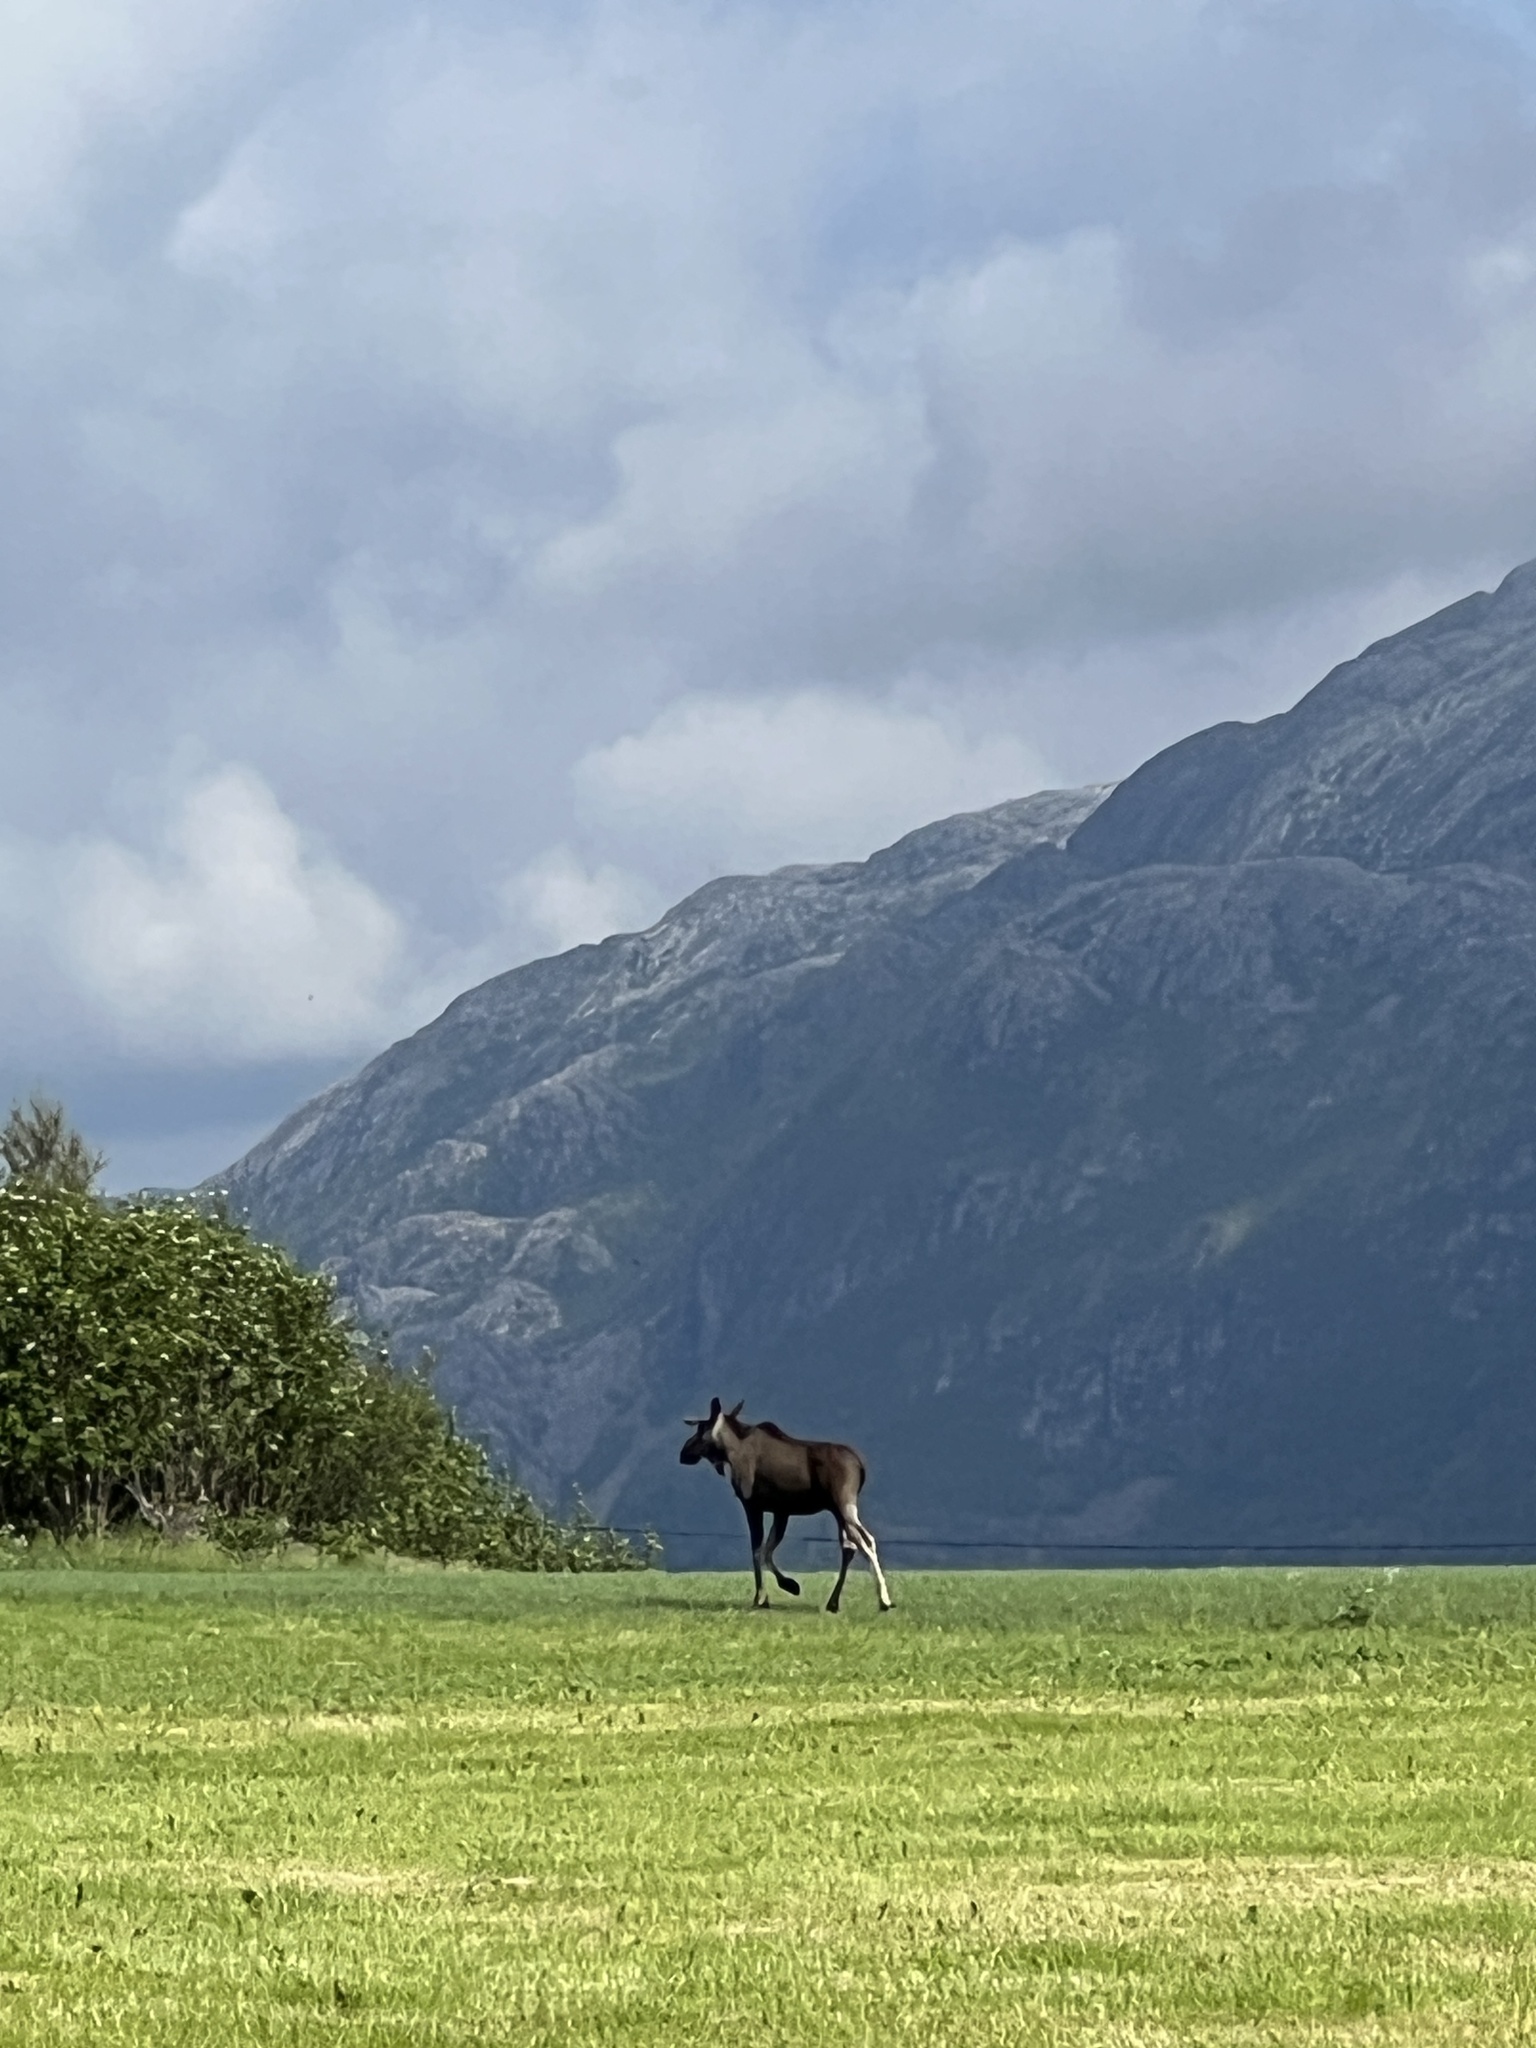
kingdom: Animalia
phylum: Chordata
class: Mammalia
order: Artiodactyla
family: Cervidae
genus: Alces
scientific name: Alces alces
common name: Moose
